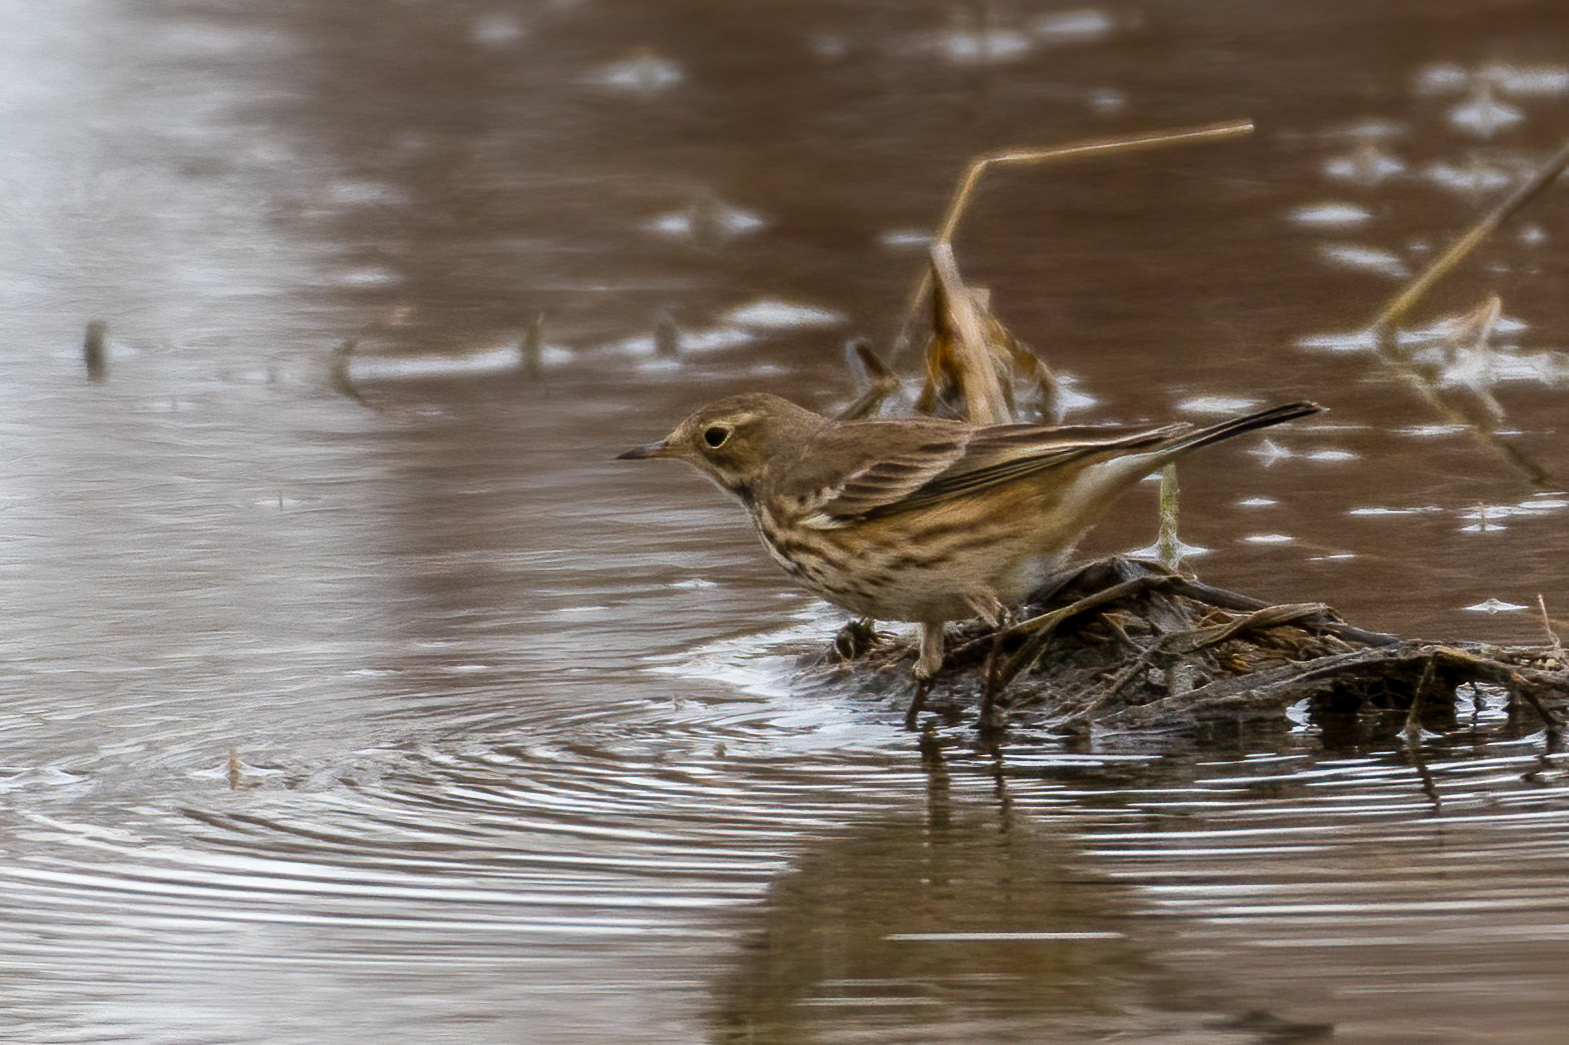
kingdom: Animalia
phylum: Chordata
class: Aves
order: Passeriformes
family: Motacillidae
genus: Anthus
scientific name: Anthus rubescens
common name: Buff-bellied pipit
